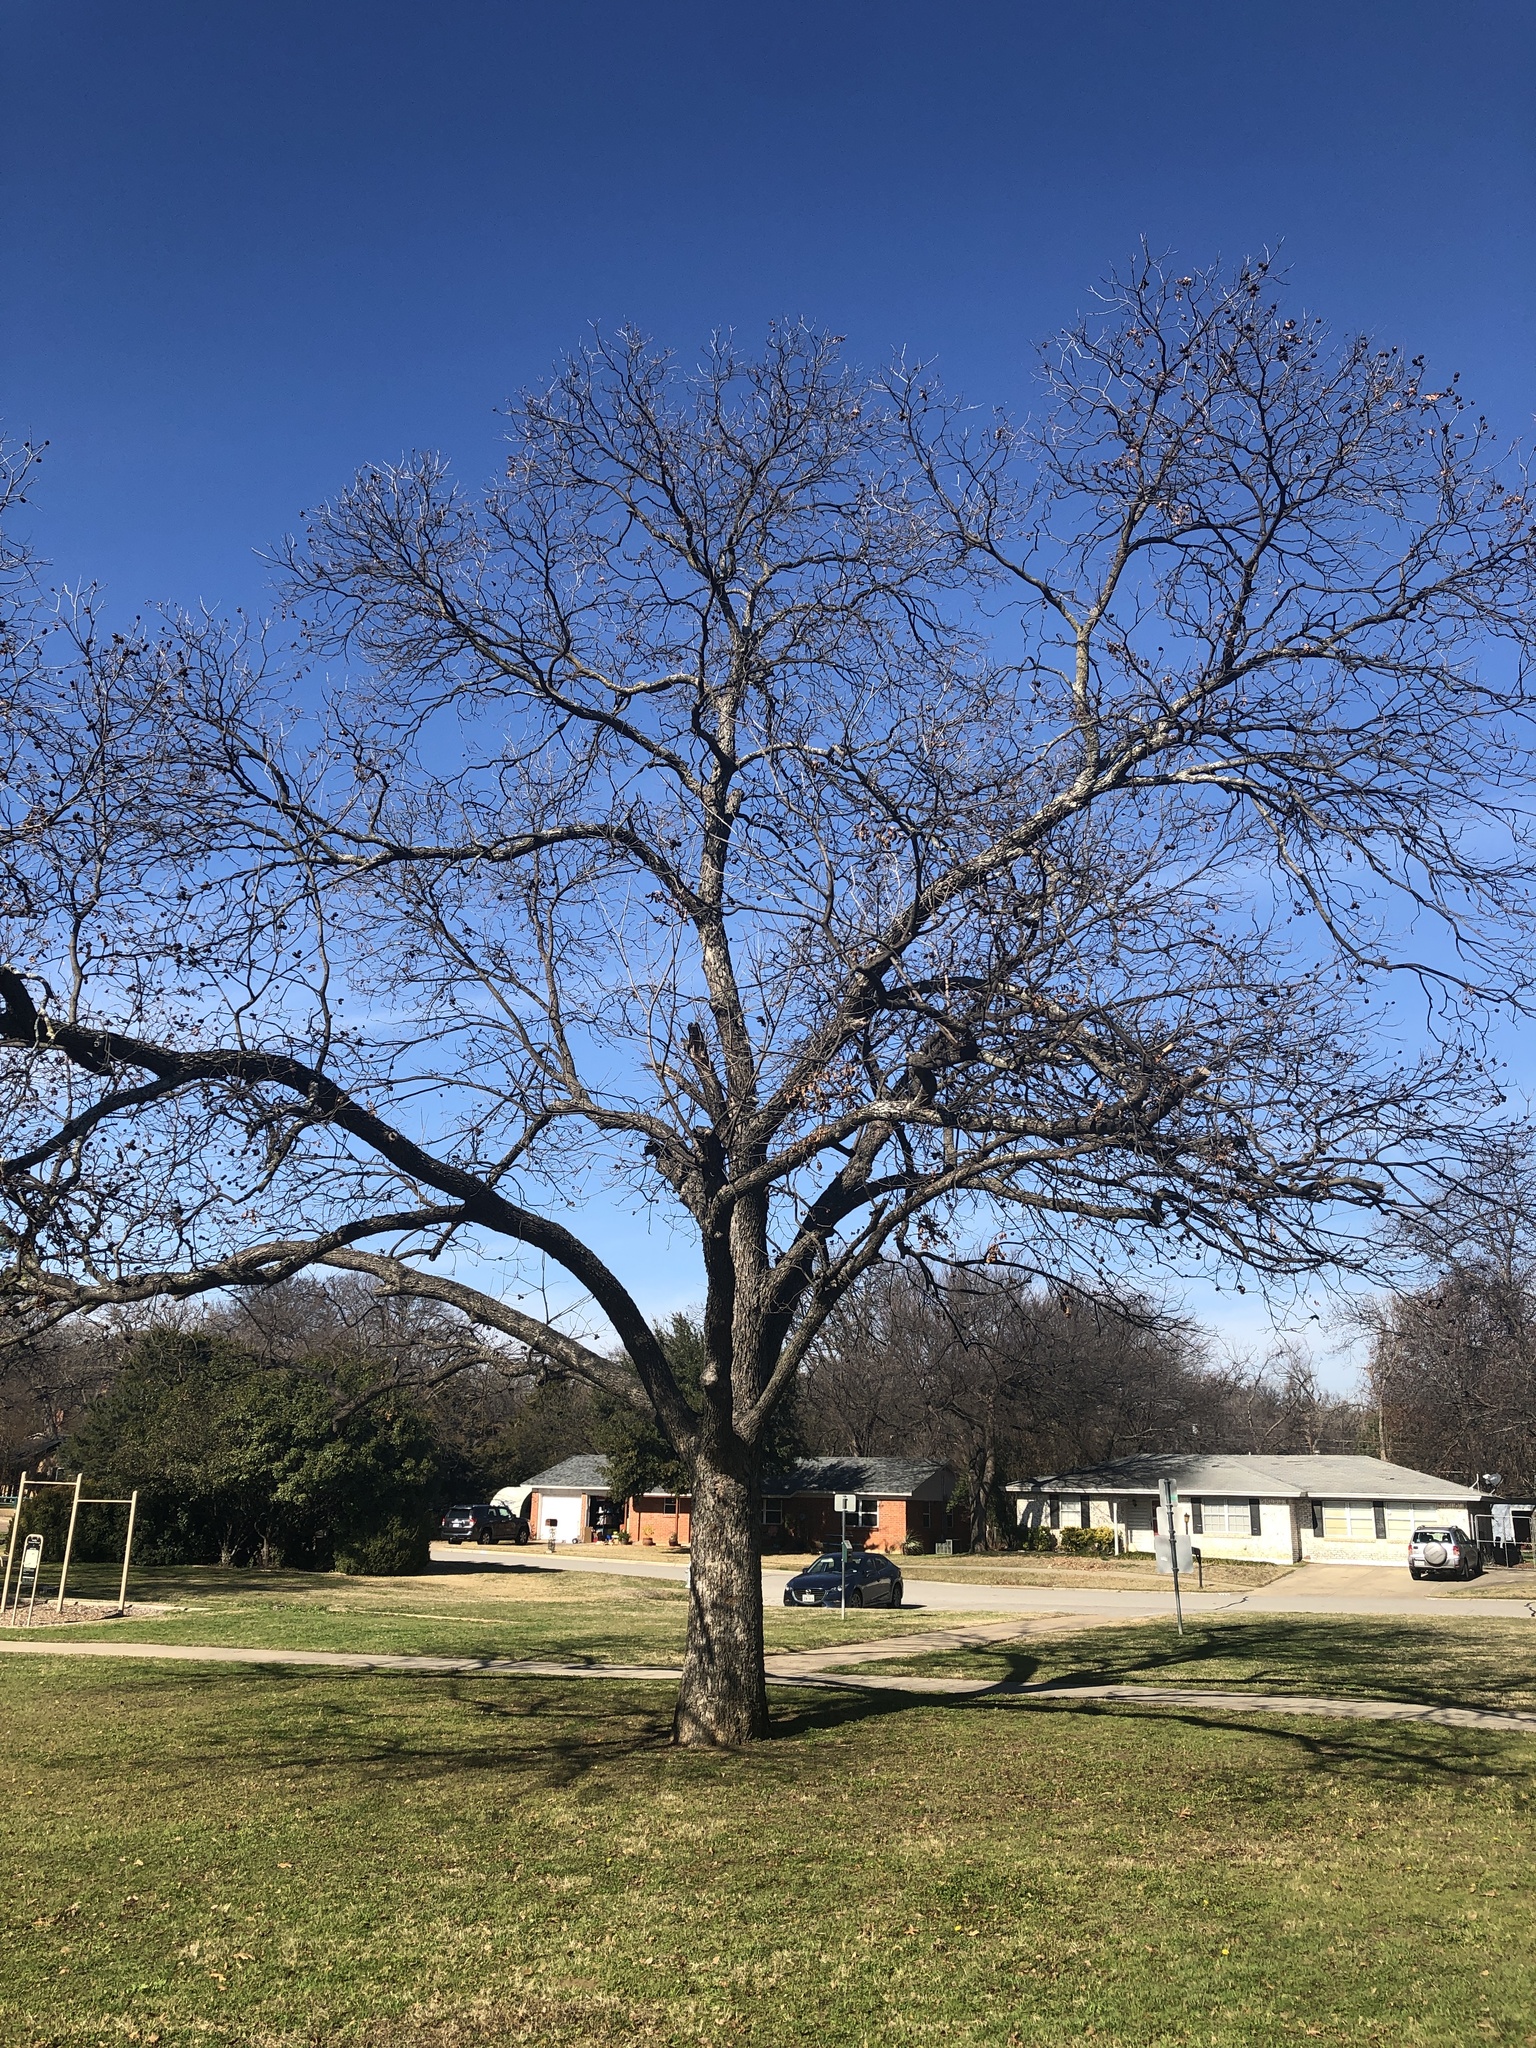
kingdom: Plantae
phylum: Tracheophyta
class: Magnoliopsida
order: Fagales
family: Juglandaceae
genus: Carya
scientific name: Carya illinoinensis
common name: Pecan
